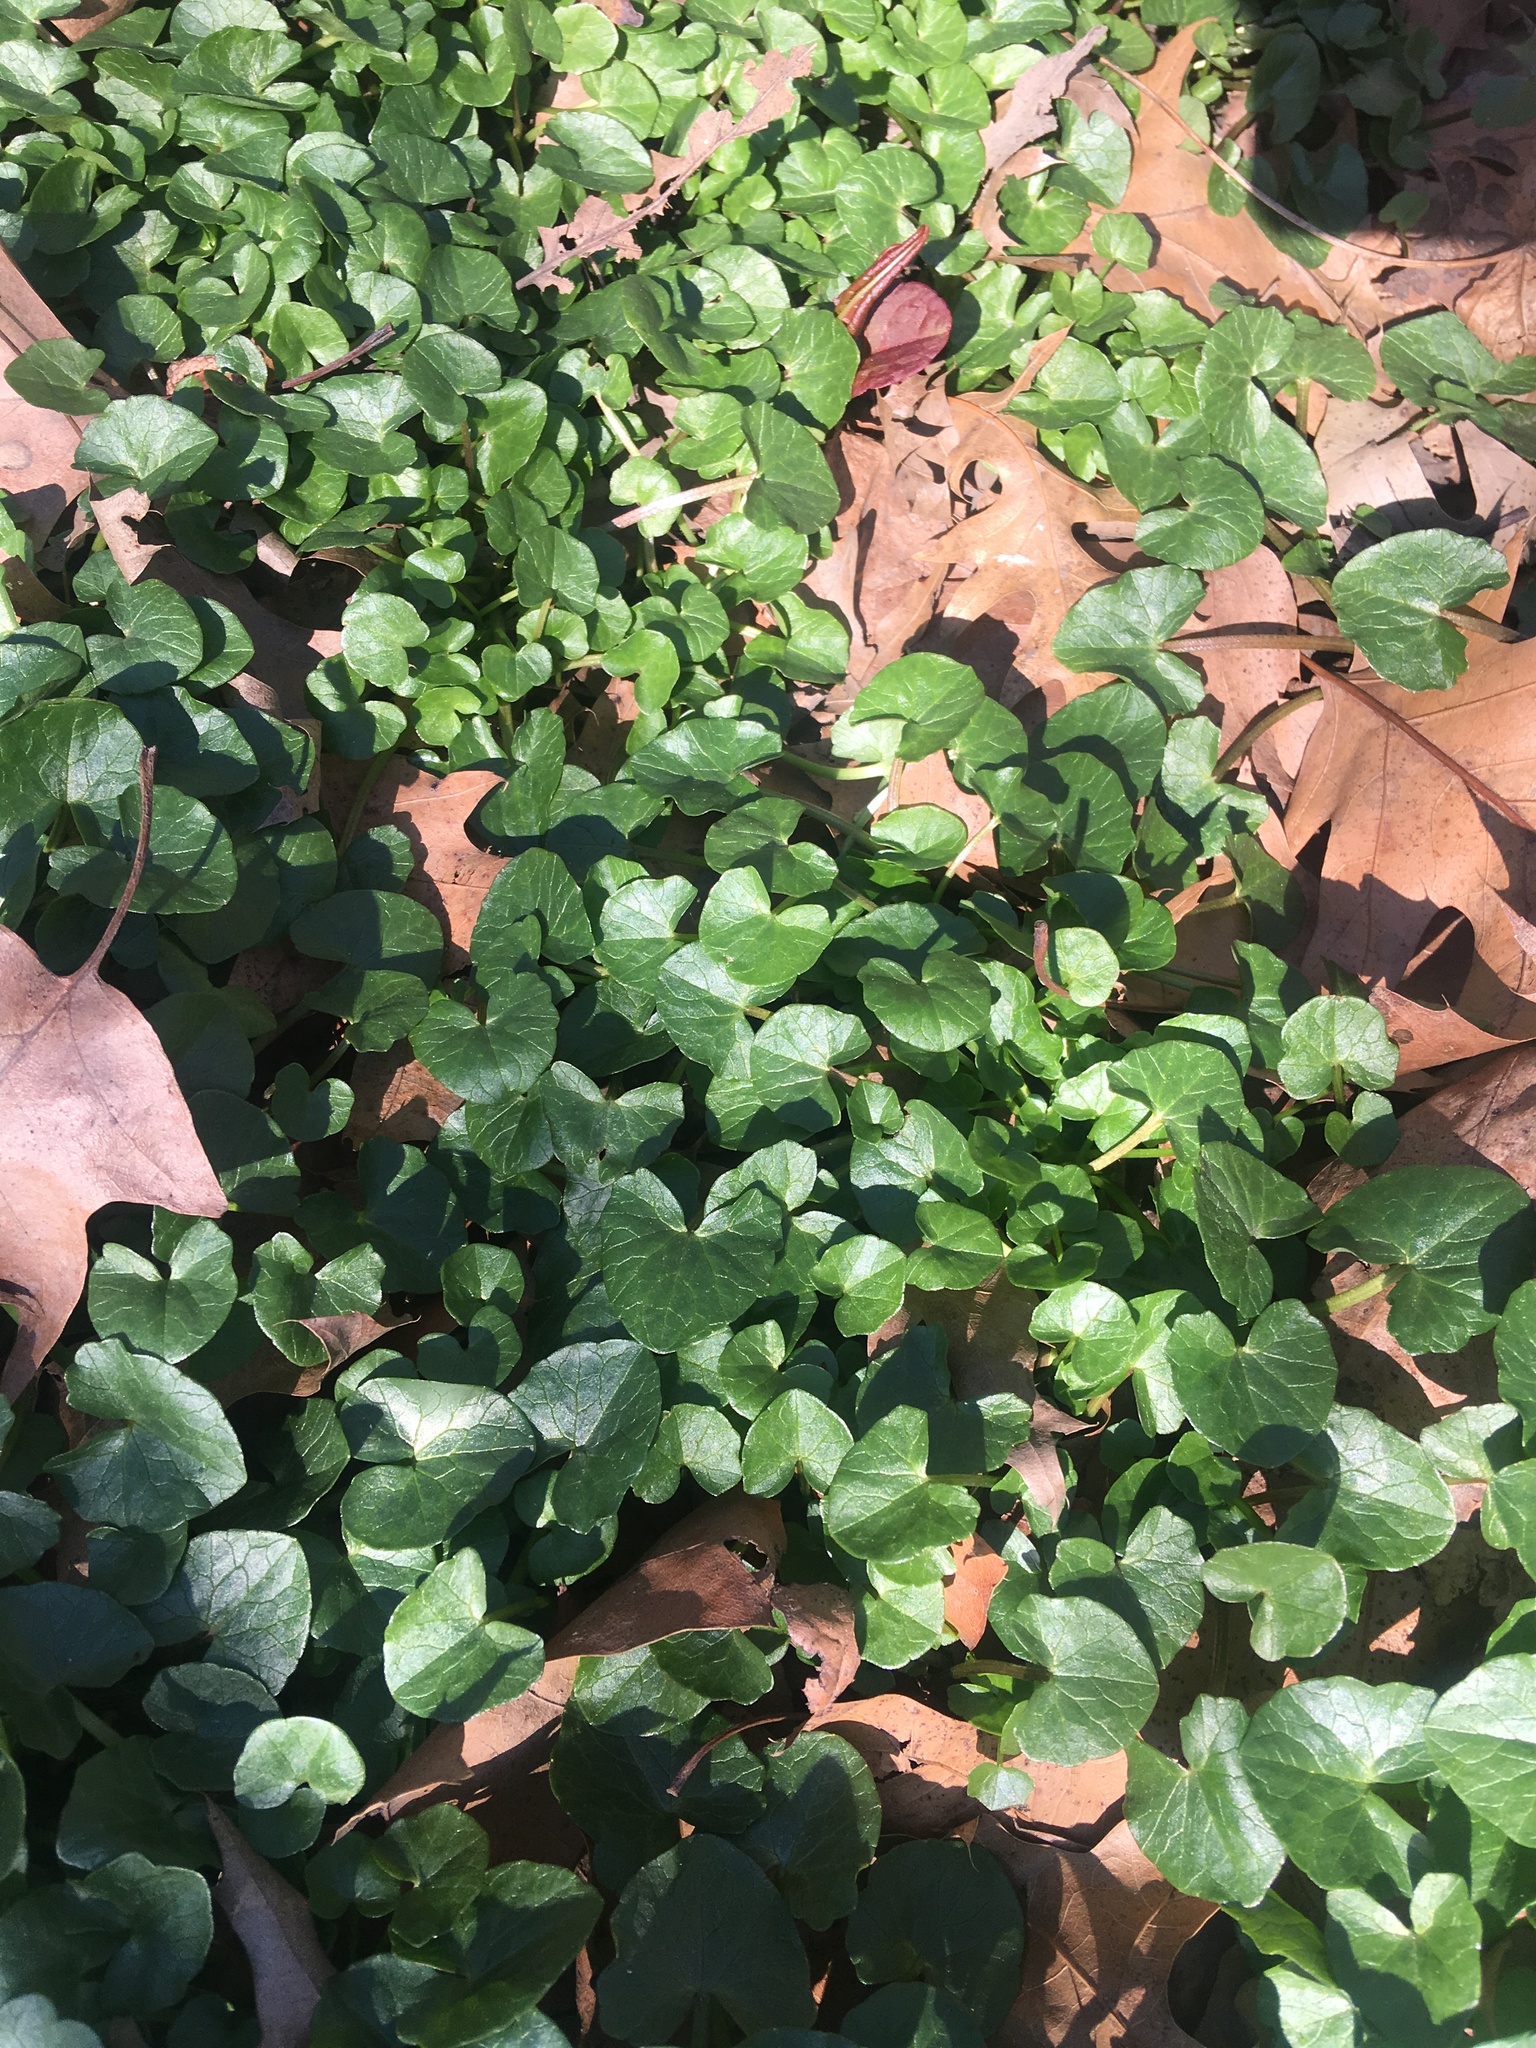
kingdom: Plantae
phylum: Tracheophyta
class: Magnoliopsida
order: Ranunculales
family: Ranunculaceae
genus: Ficaria
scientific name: Ficaria verna
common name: Lesser celandine
